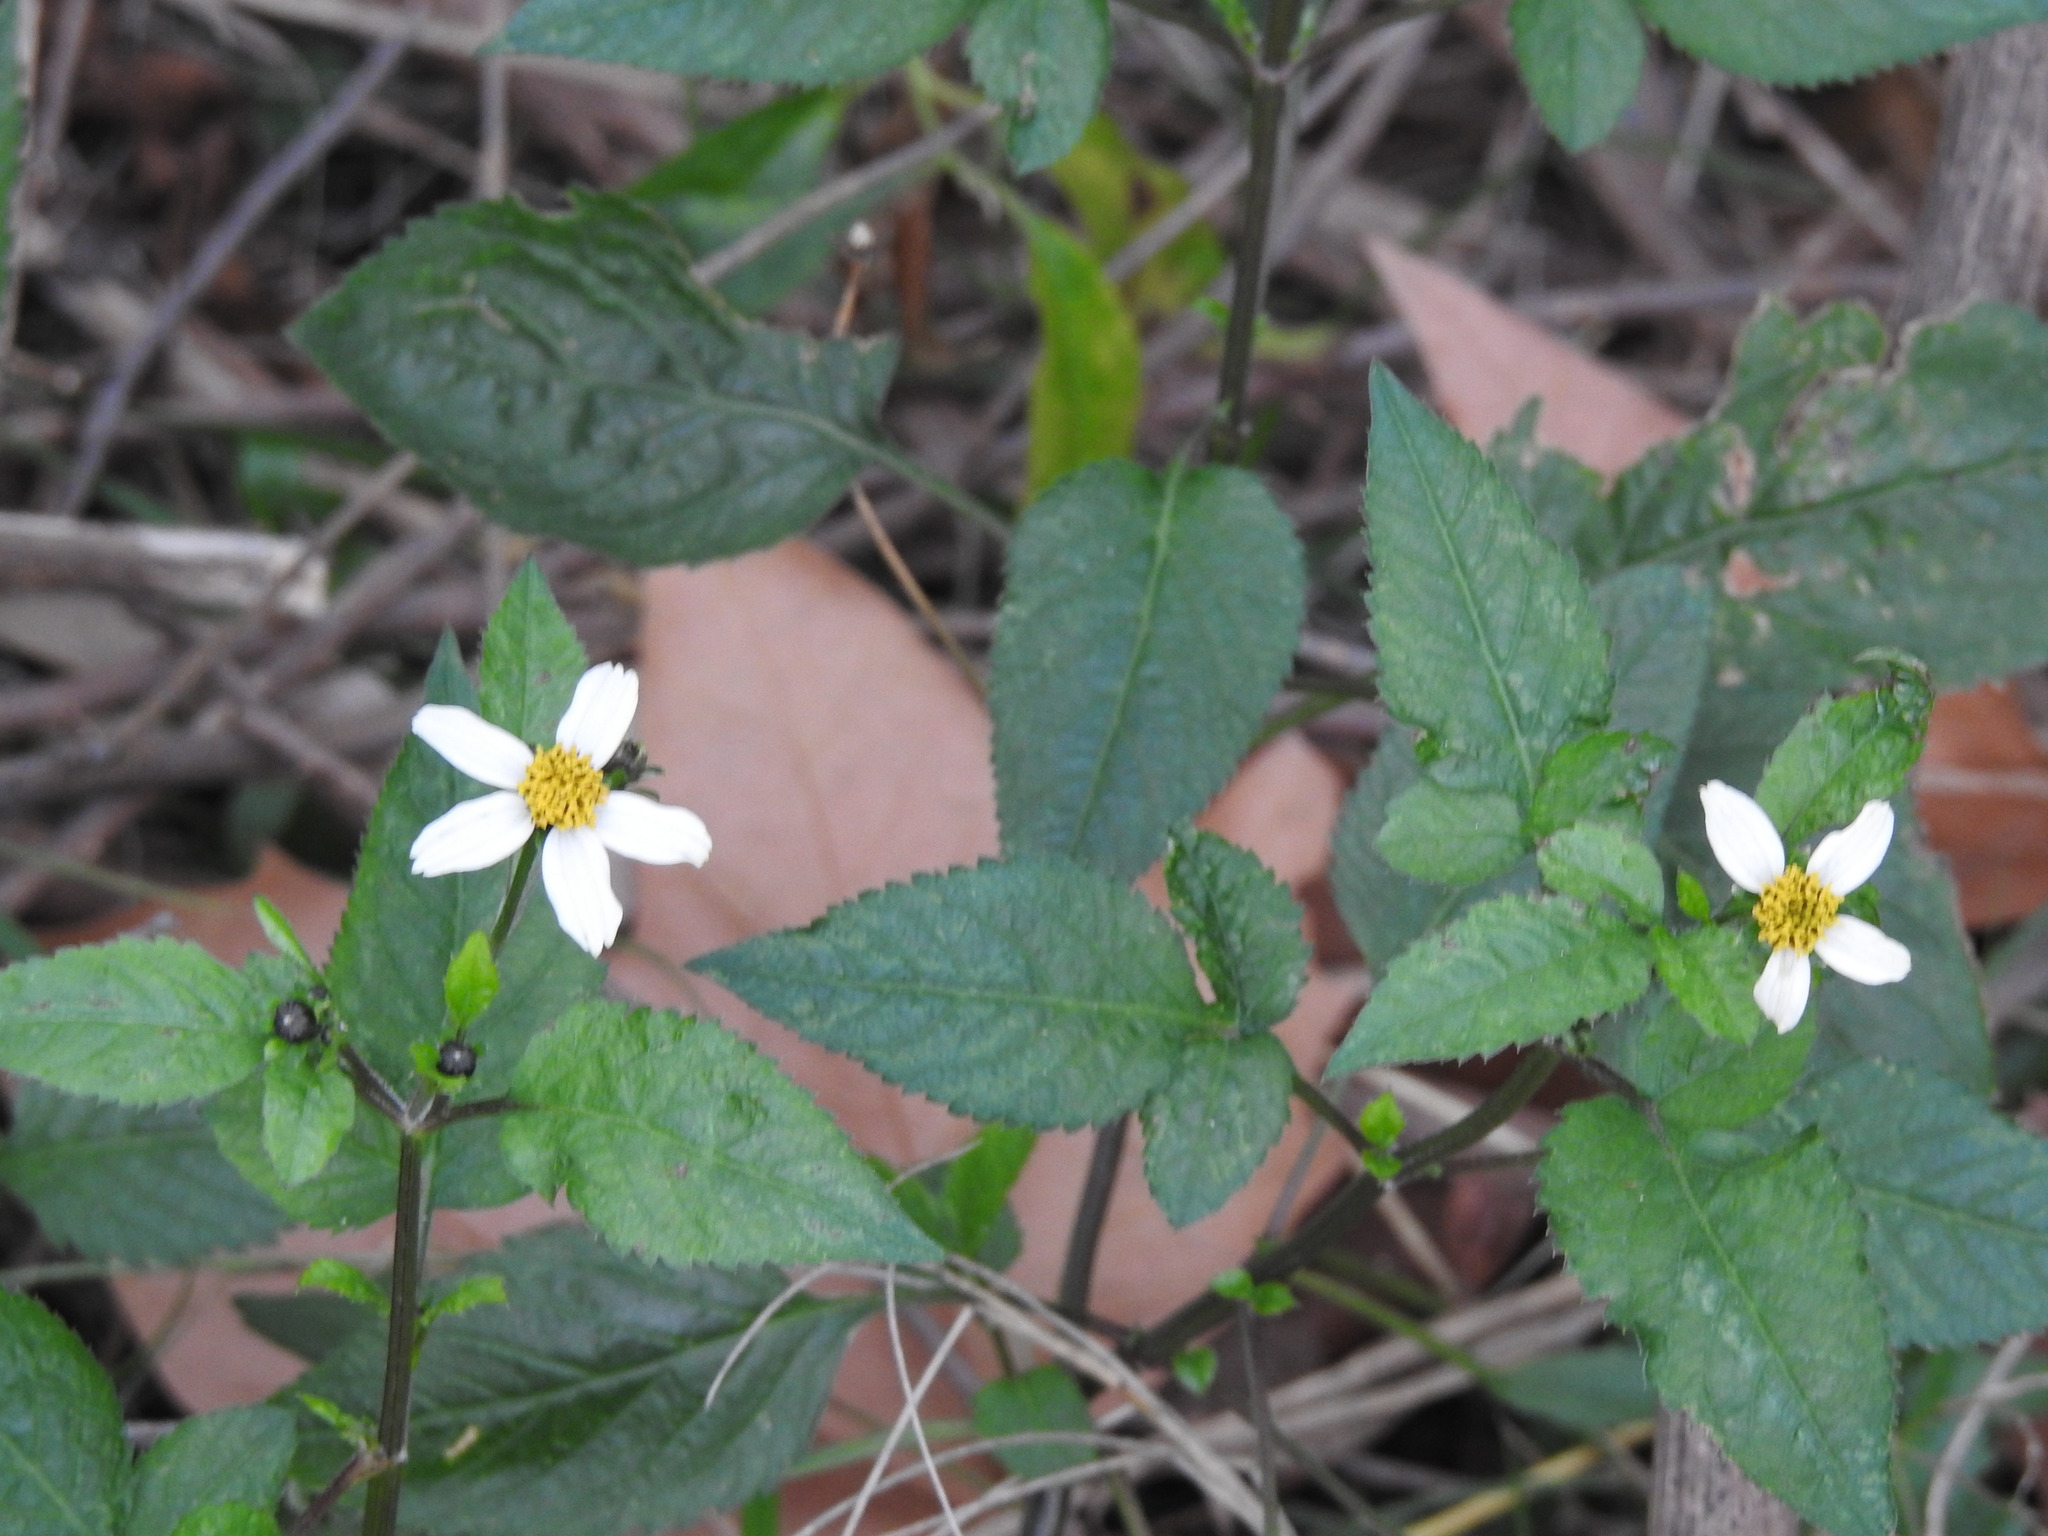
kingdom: Plantae
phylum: Tracheophyta
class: Magnoliopsida
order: Asterales
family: Asteraceae
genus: Bidens
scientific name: Bidens pilosa
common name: Black-jack
